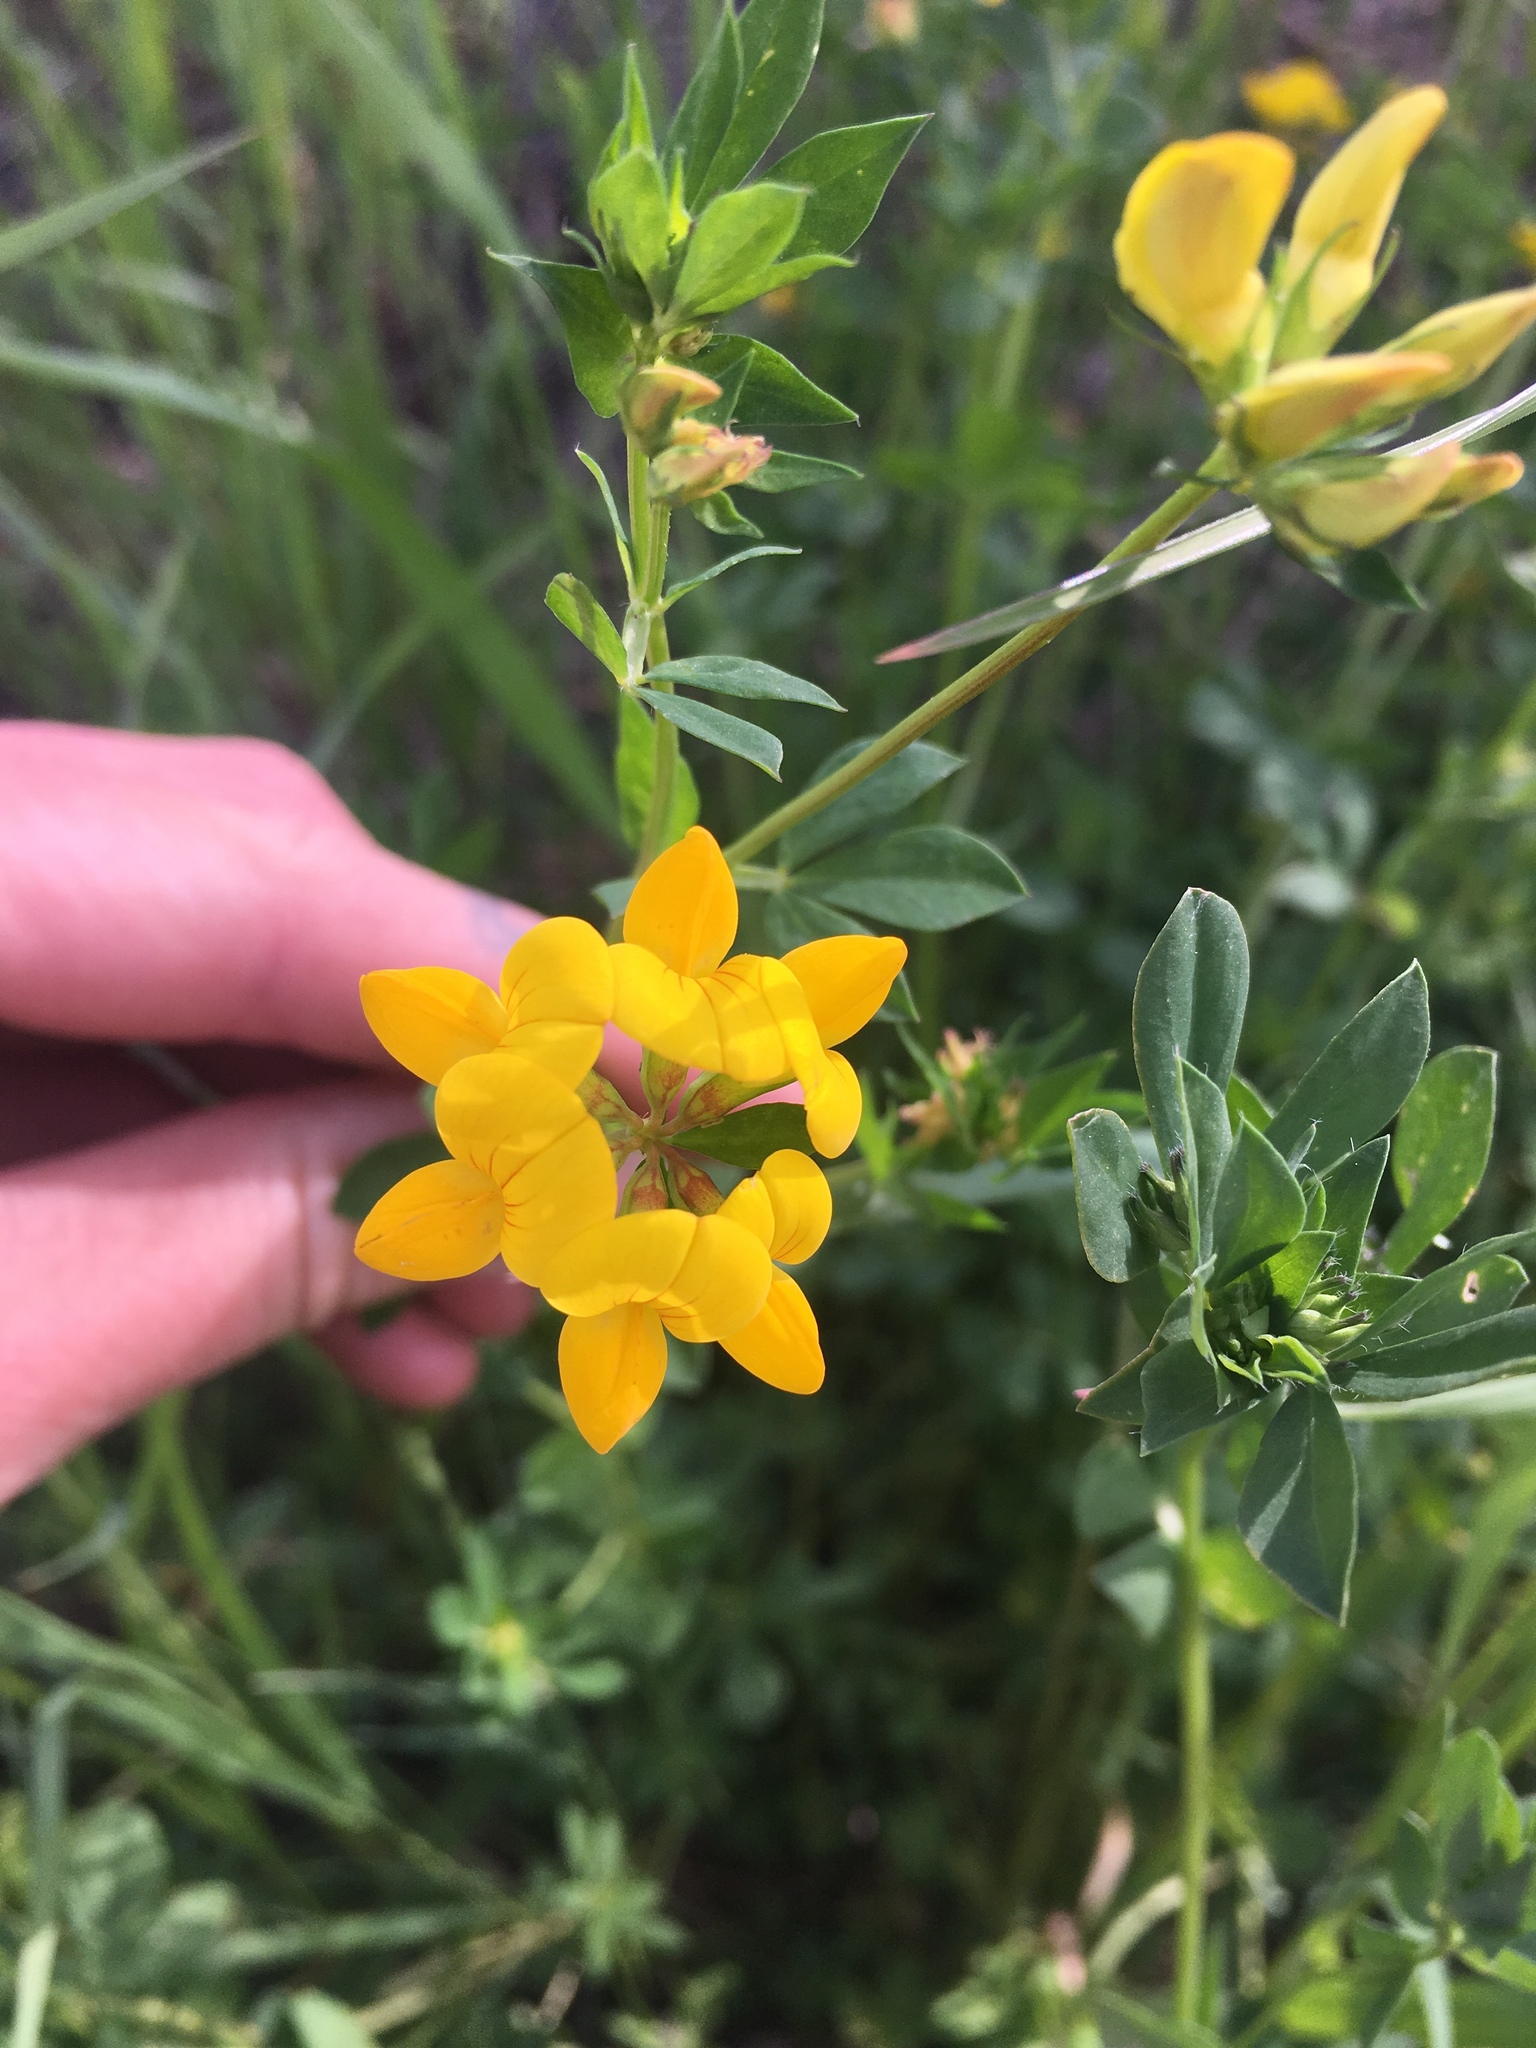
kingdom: Plantae
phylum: Tracheophyta
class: Magnoliopsida
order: Fabales
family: Fabaceae
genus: Lotus
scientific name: Lotus corniculatus
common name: Common bird's-foot-trefoil
